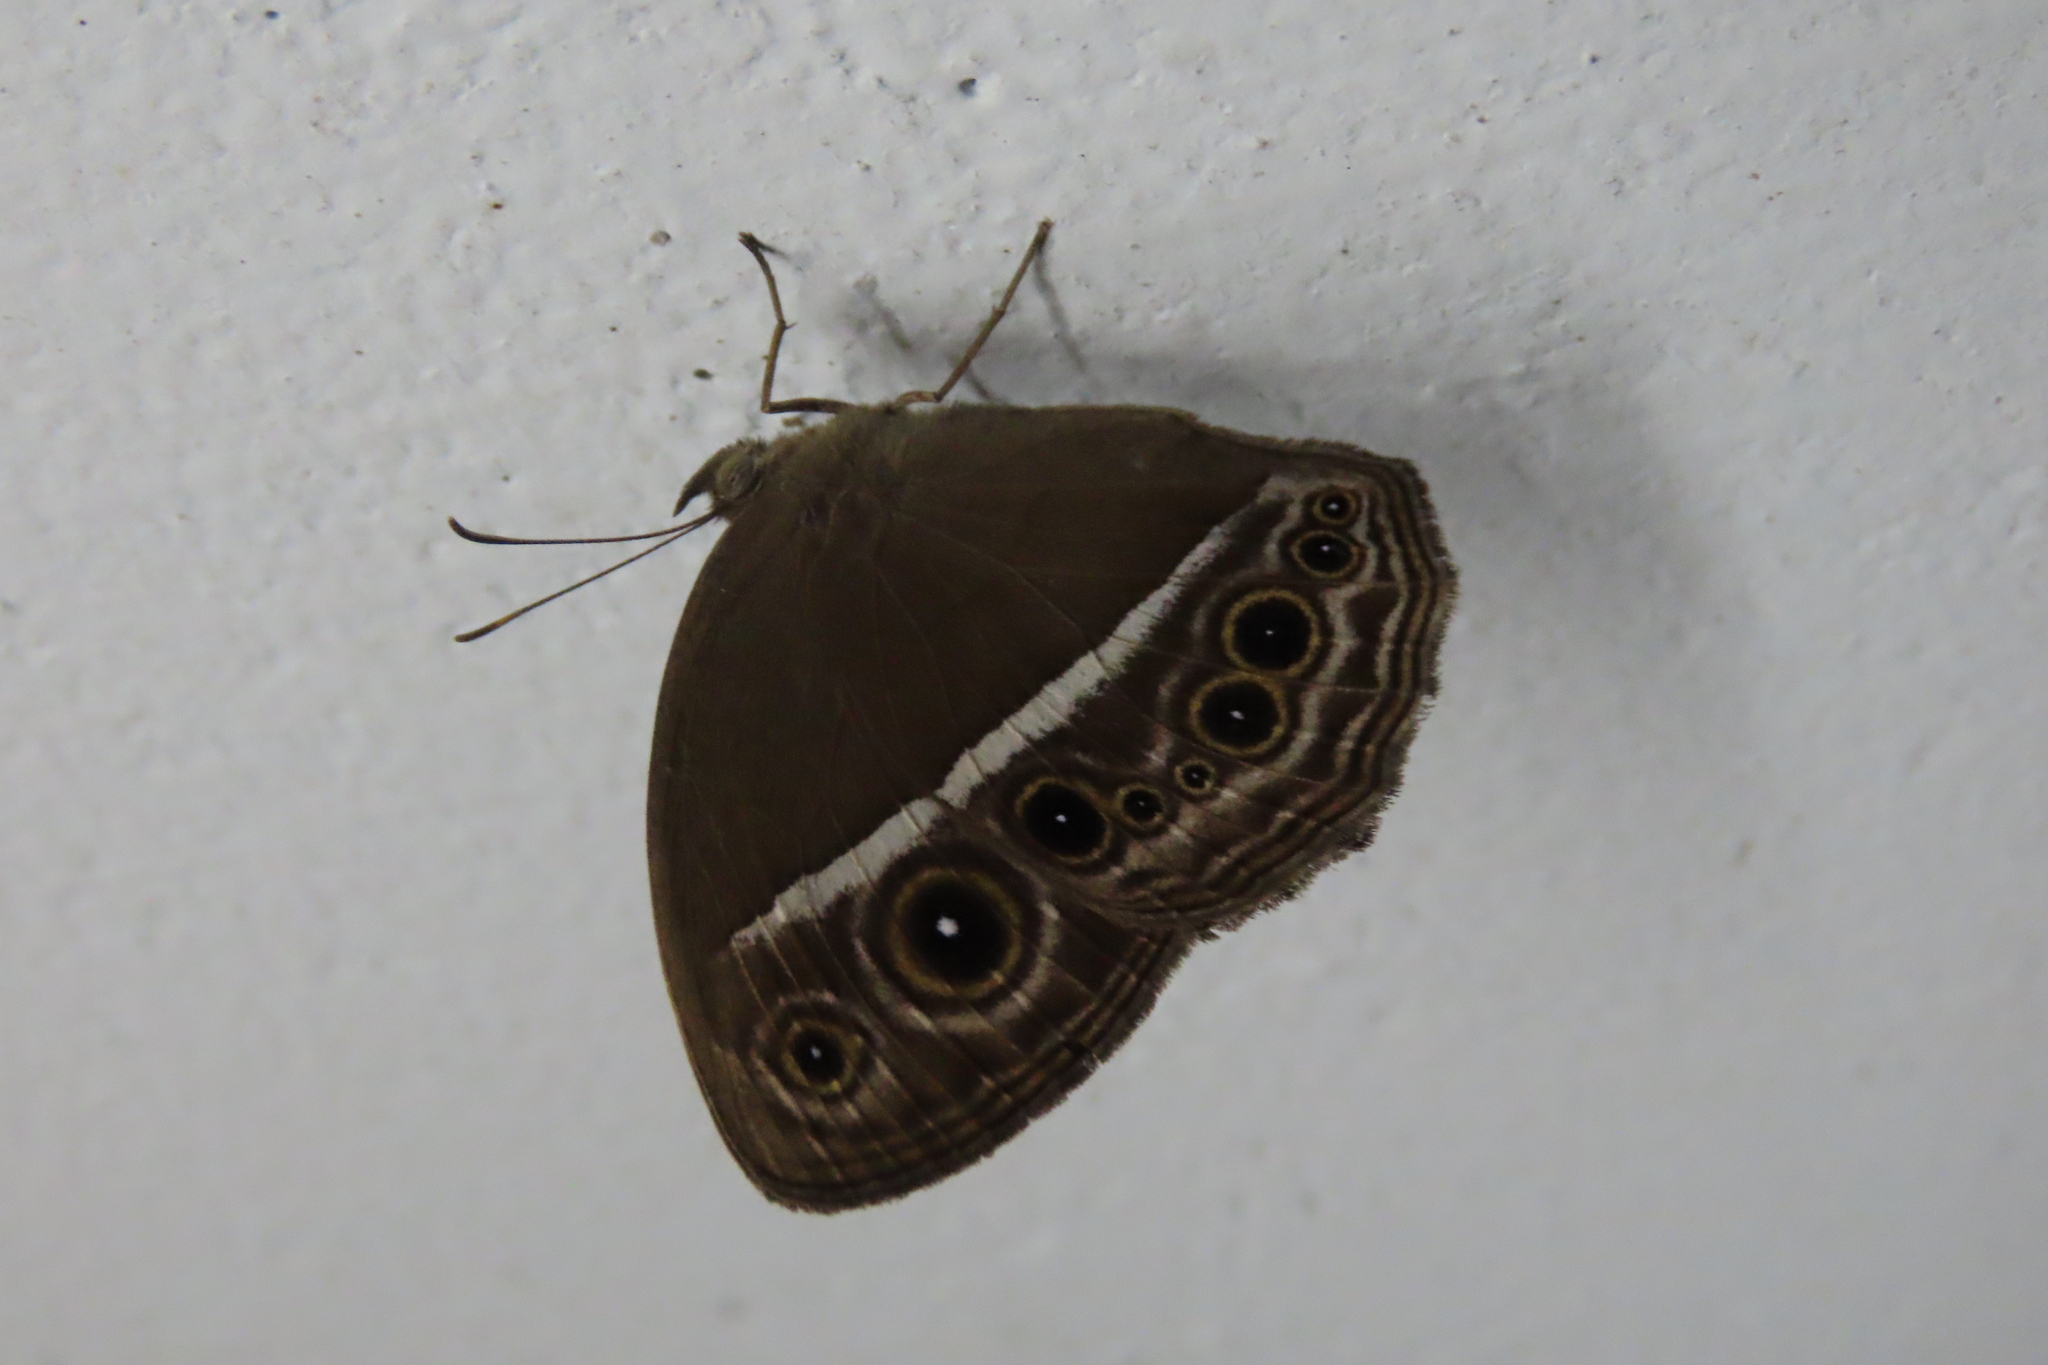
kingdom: Animalia
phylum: Arthropoda
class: Insecta
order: Lepidoptera
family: Nymphalidae
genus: Mycalesis
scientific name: Mycalesis mineus
